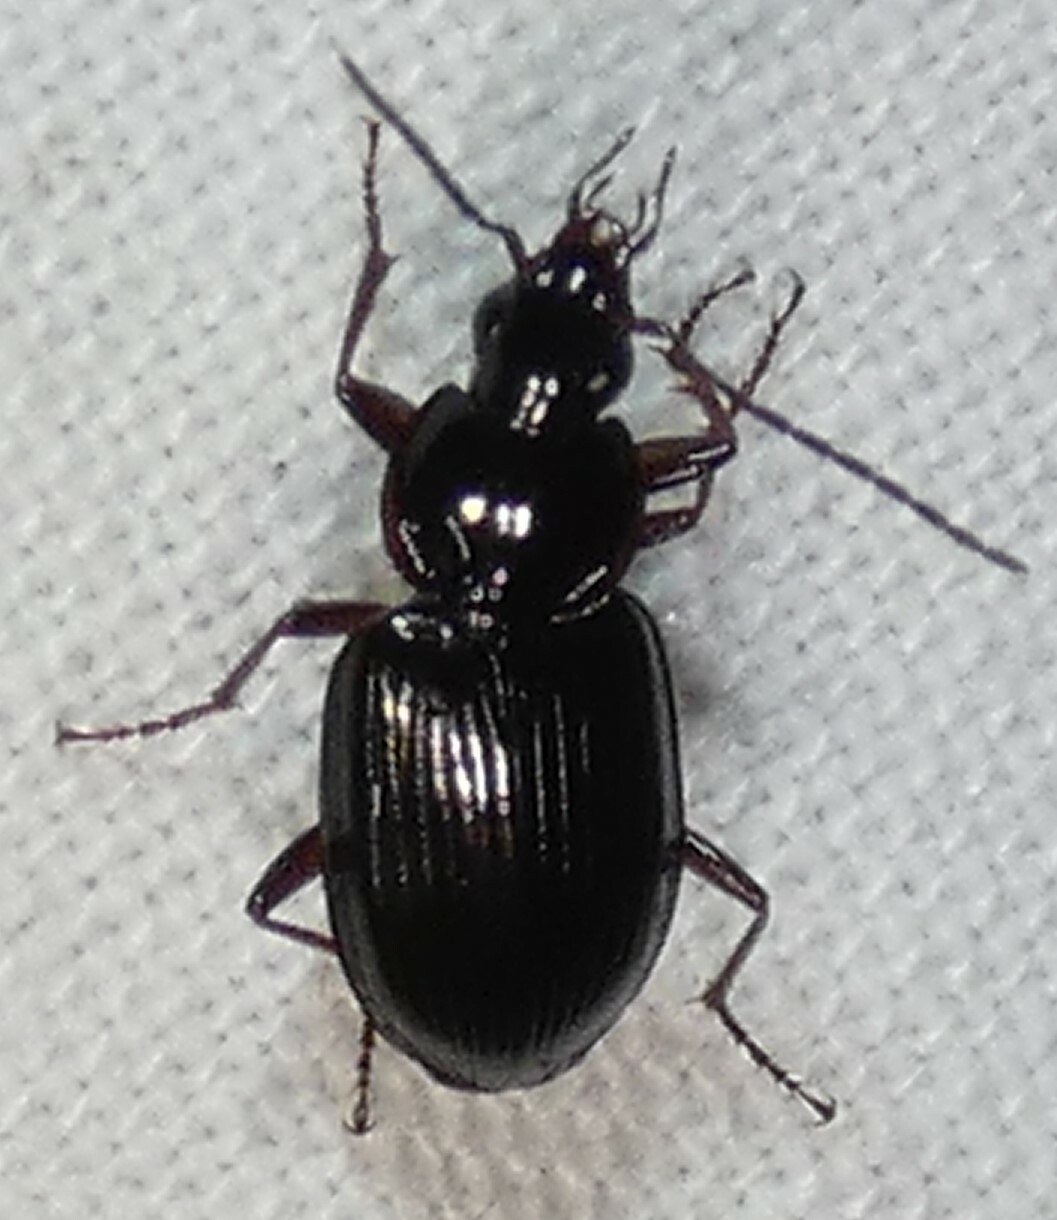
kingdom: Animalia
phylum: Arthropoda
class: Insecta
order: Coleoptera
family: Carabidae
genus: Agonum
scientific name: Agonum collare
